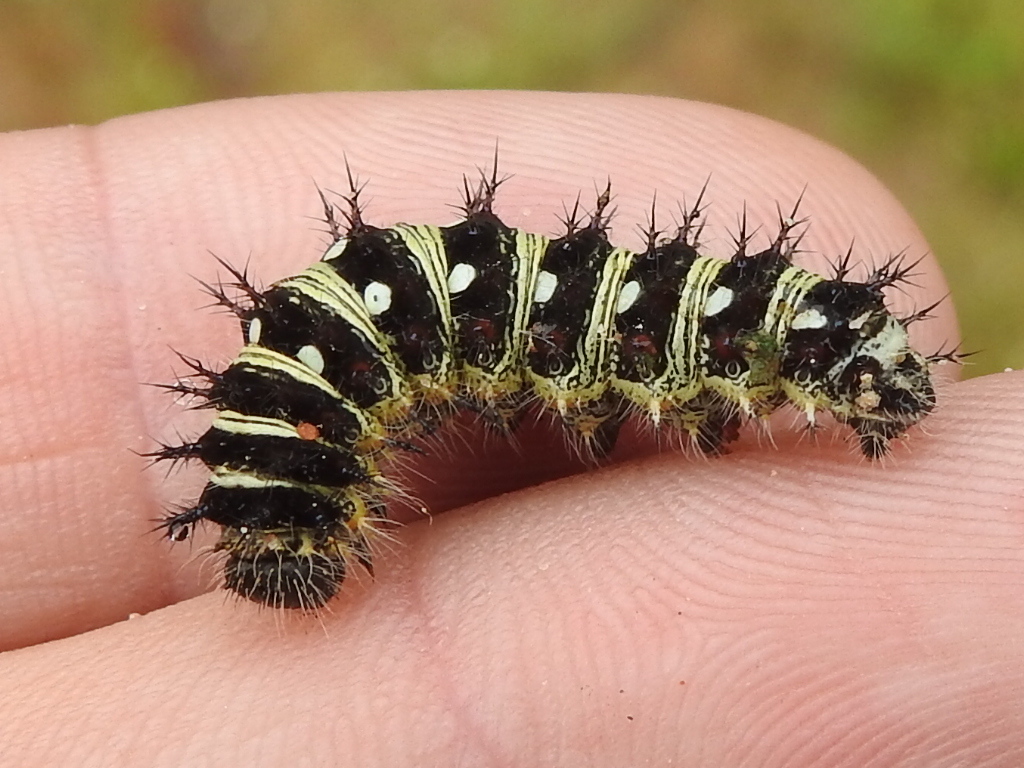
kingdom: Animalia
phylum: Arthropoda
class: Insecta
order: Lepidoptera
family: Nymphalidae
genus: Vanessa
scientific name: Vanessa virginiensis
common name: American lady
